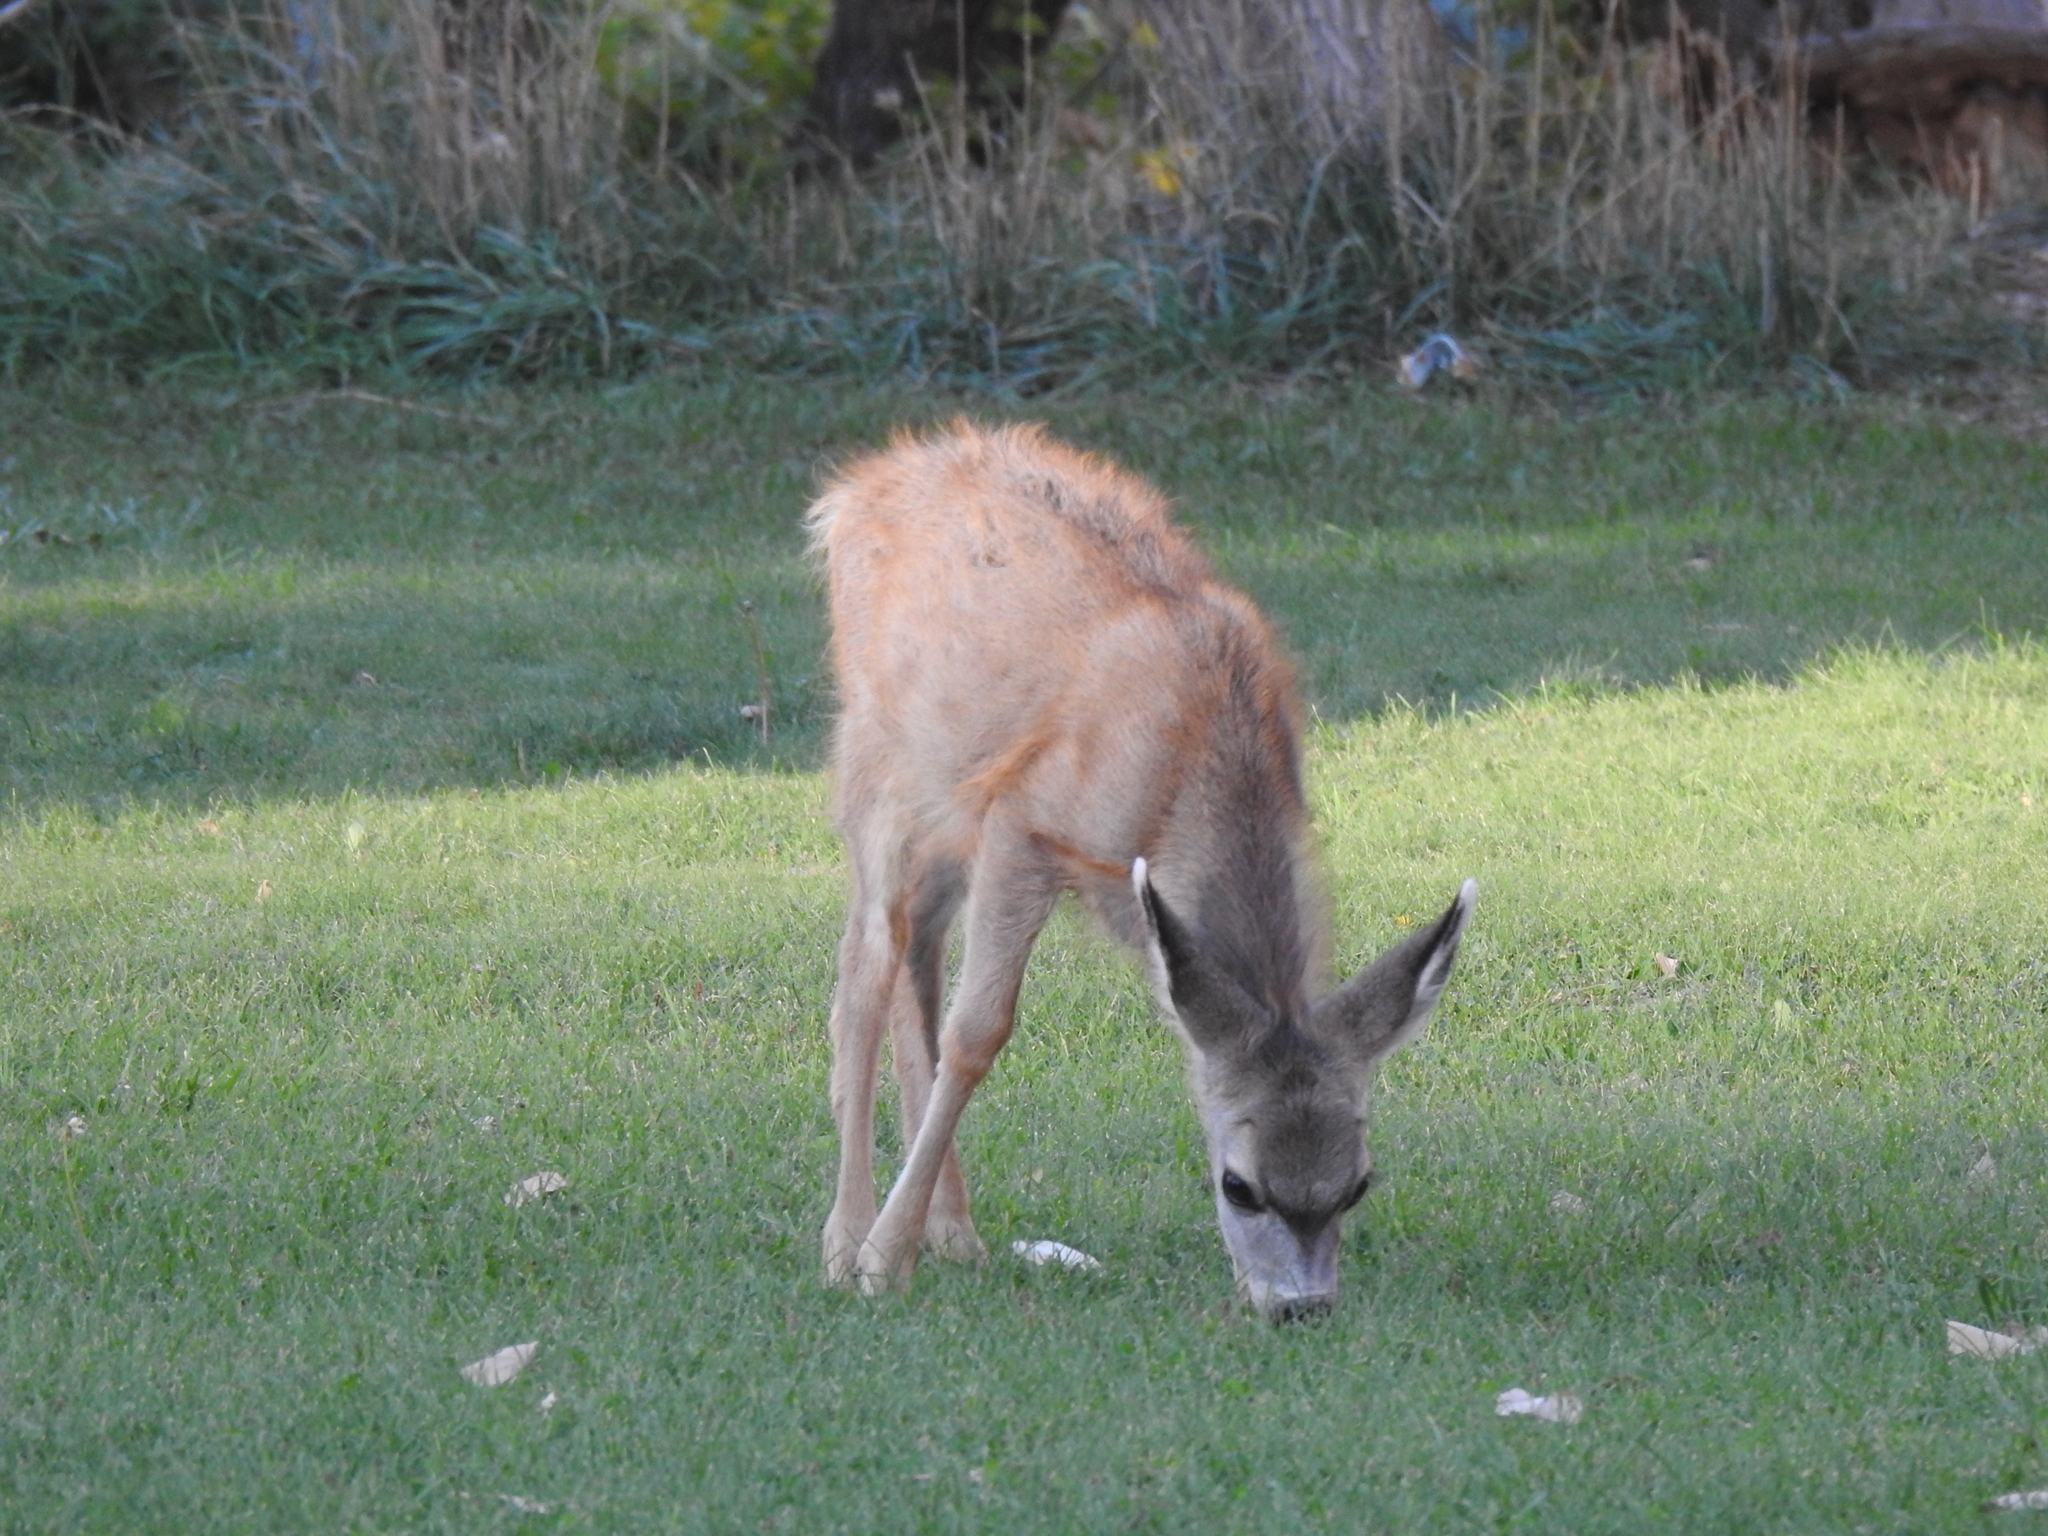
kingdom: Animalia
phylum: Chordata
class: Mammalia
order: Artiodactyla
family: Cervidae
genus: Odocoileus
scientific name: Odocoileus hemionus
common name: Mule deer
